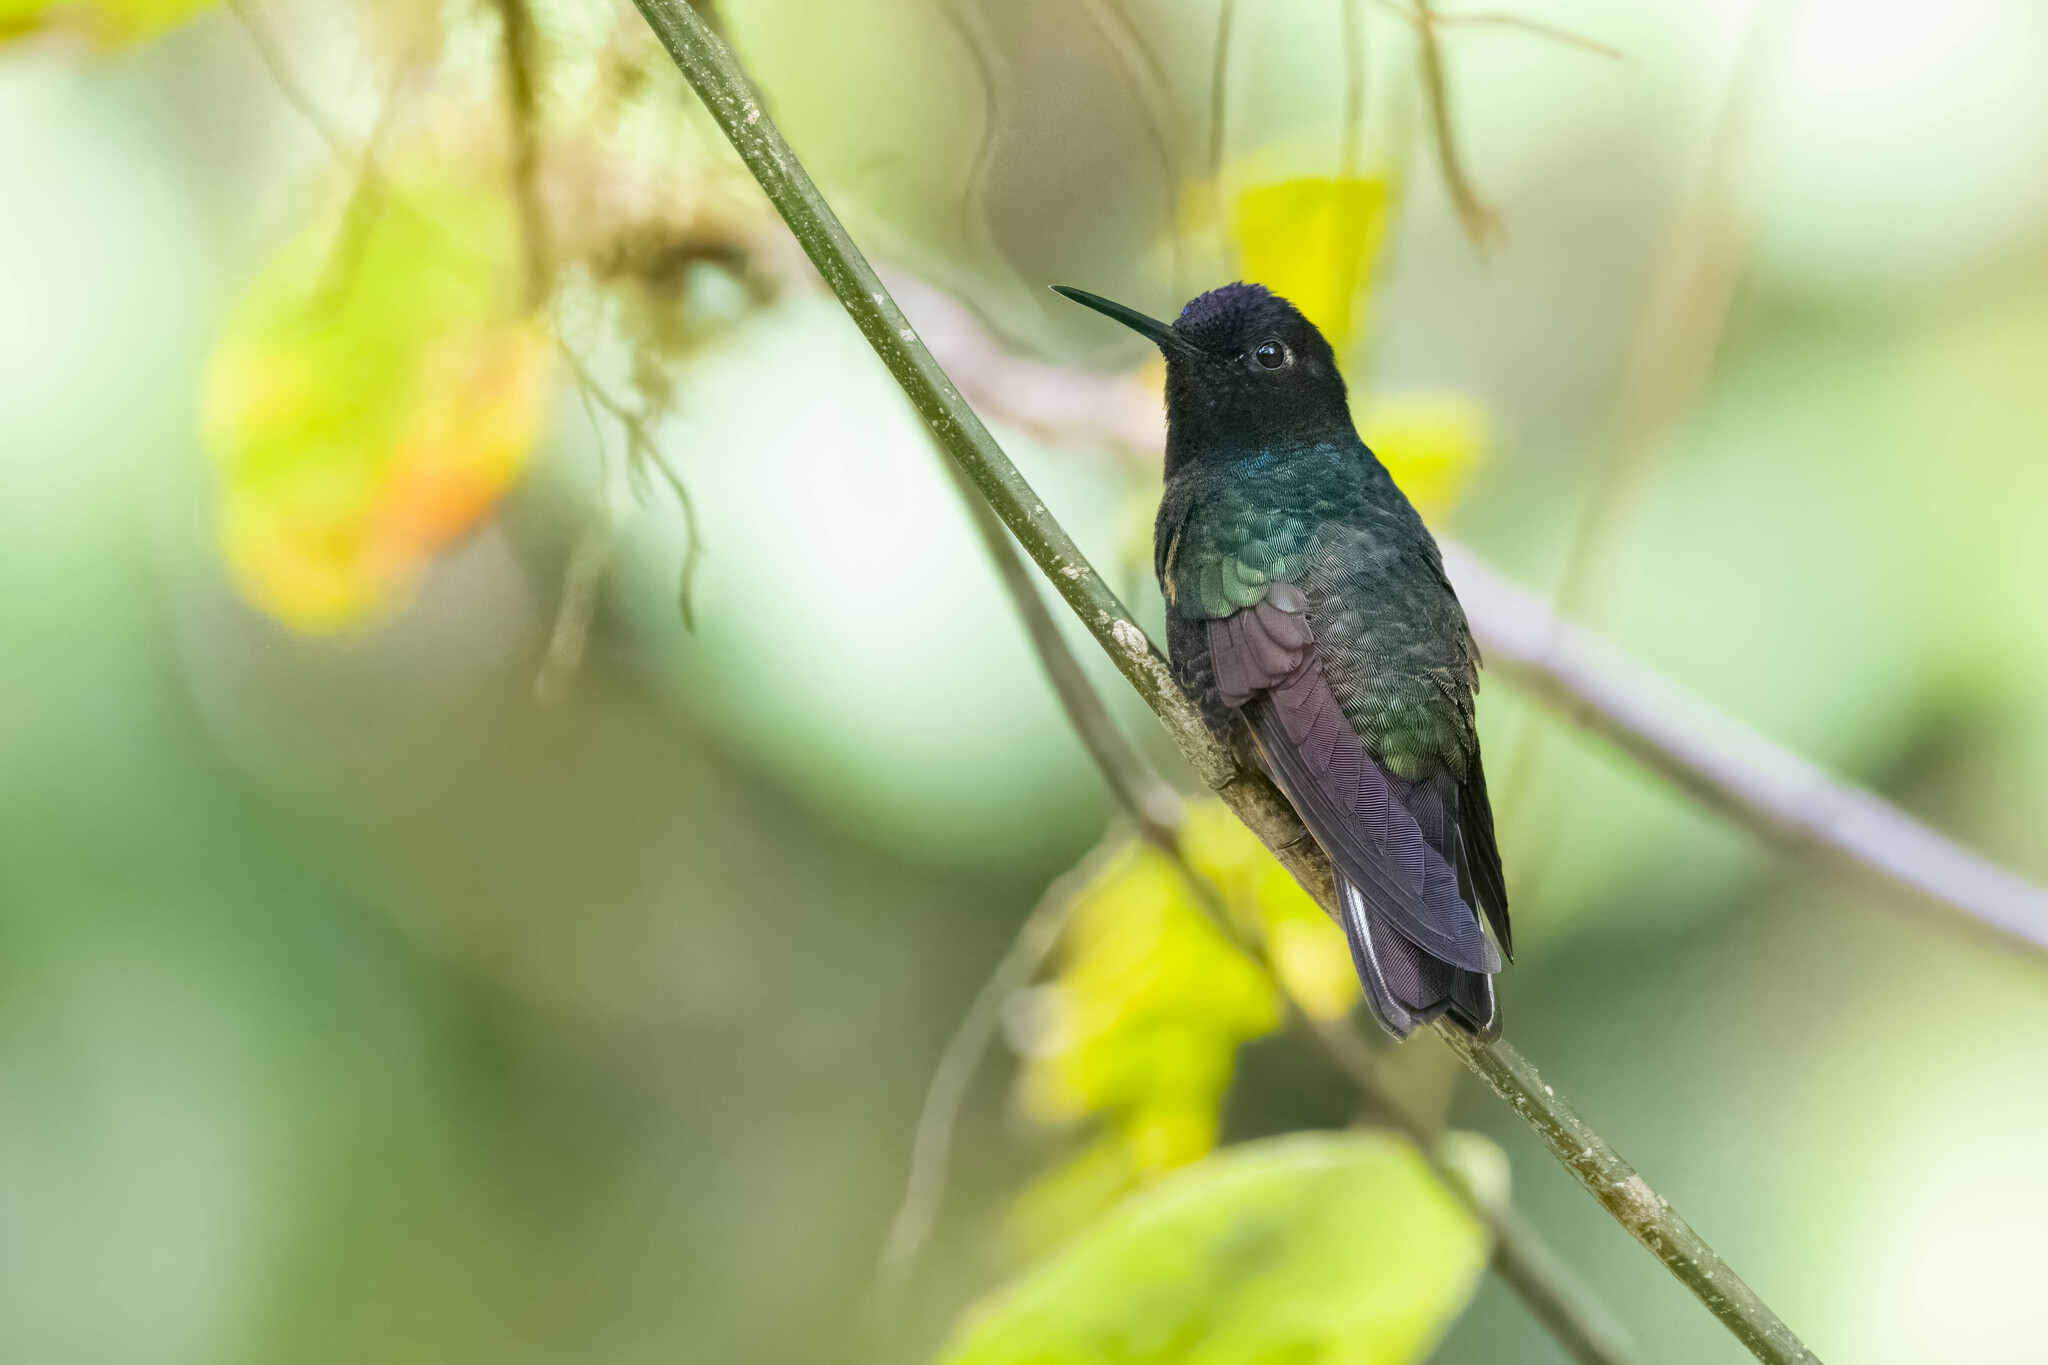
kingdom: Animalia
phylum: Chordata
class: Aves
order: Apodiformes
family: Trochilidae
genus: Boissonneaua
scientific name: Boissonneaua jardini
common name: Velvet-purple coronet
